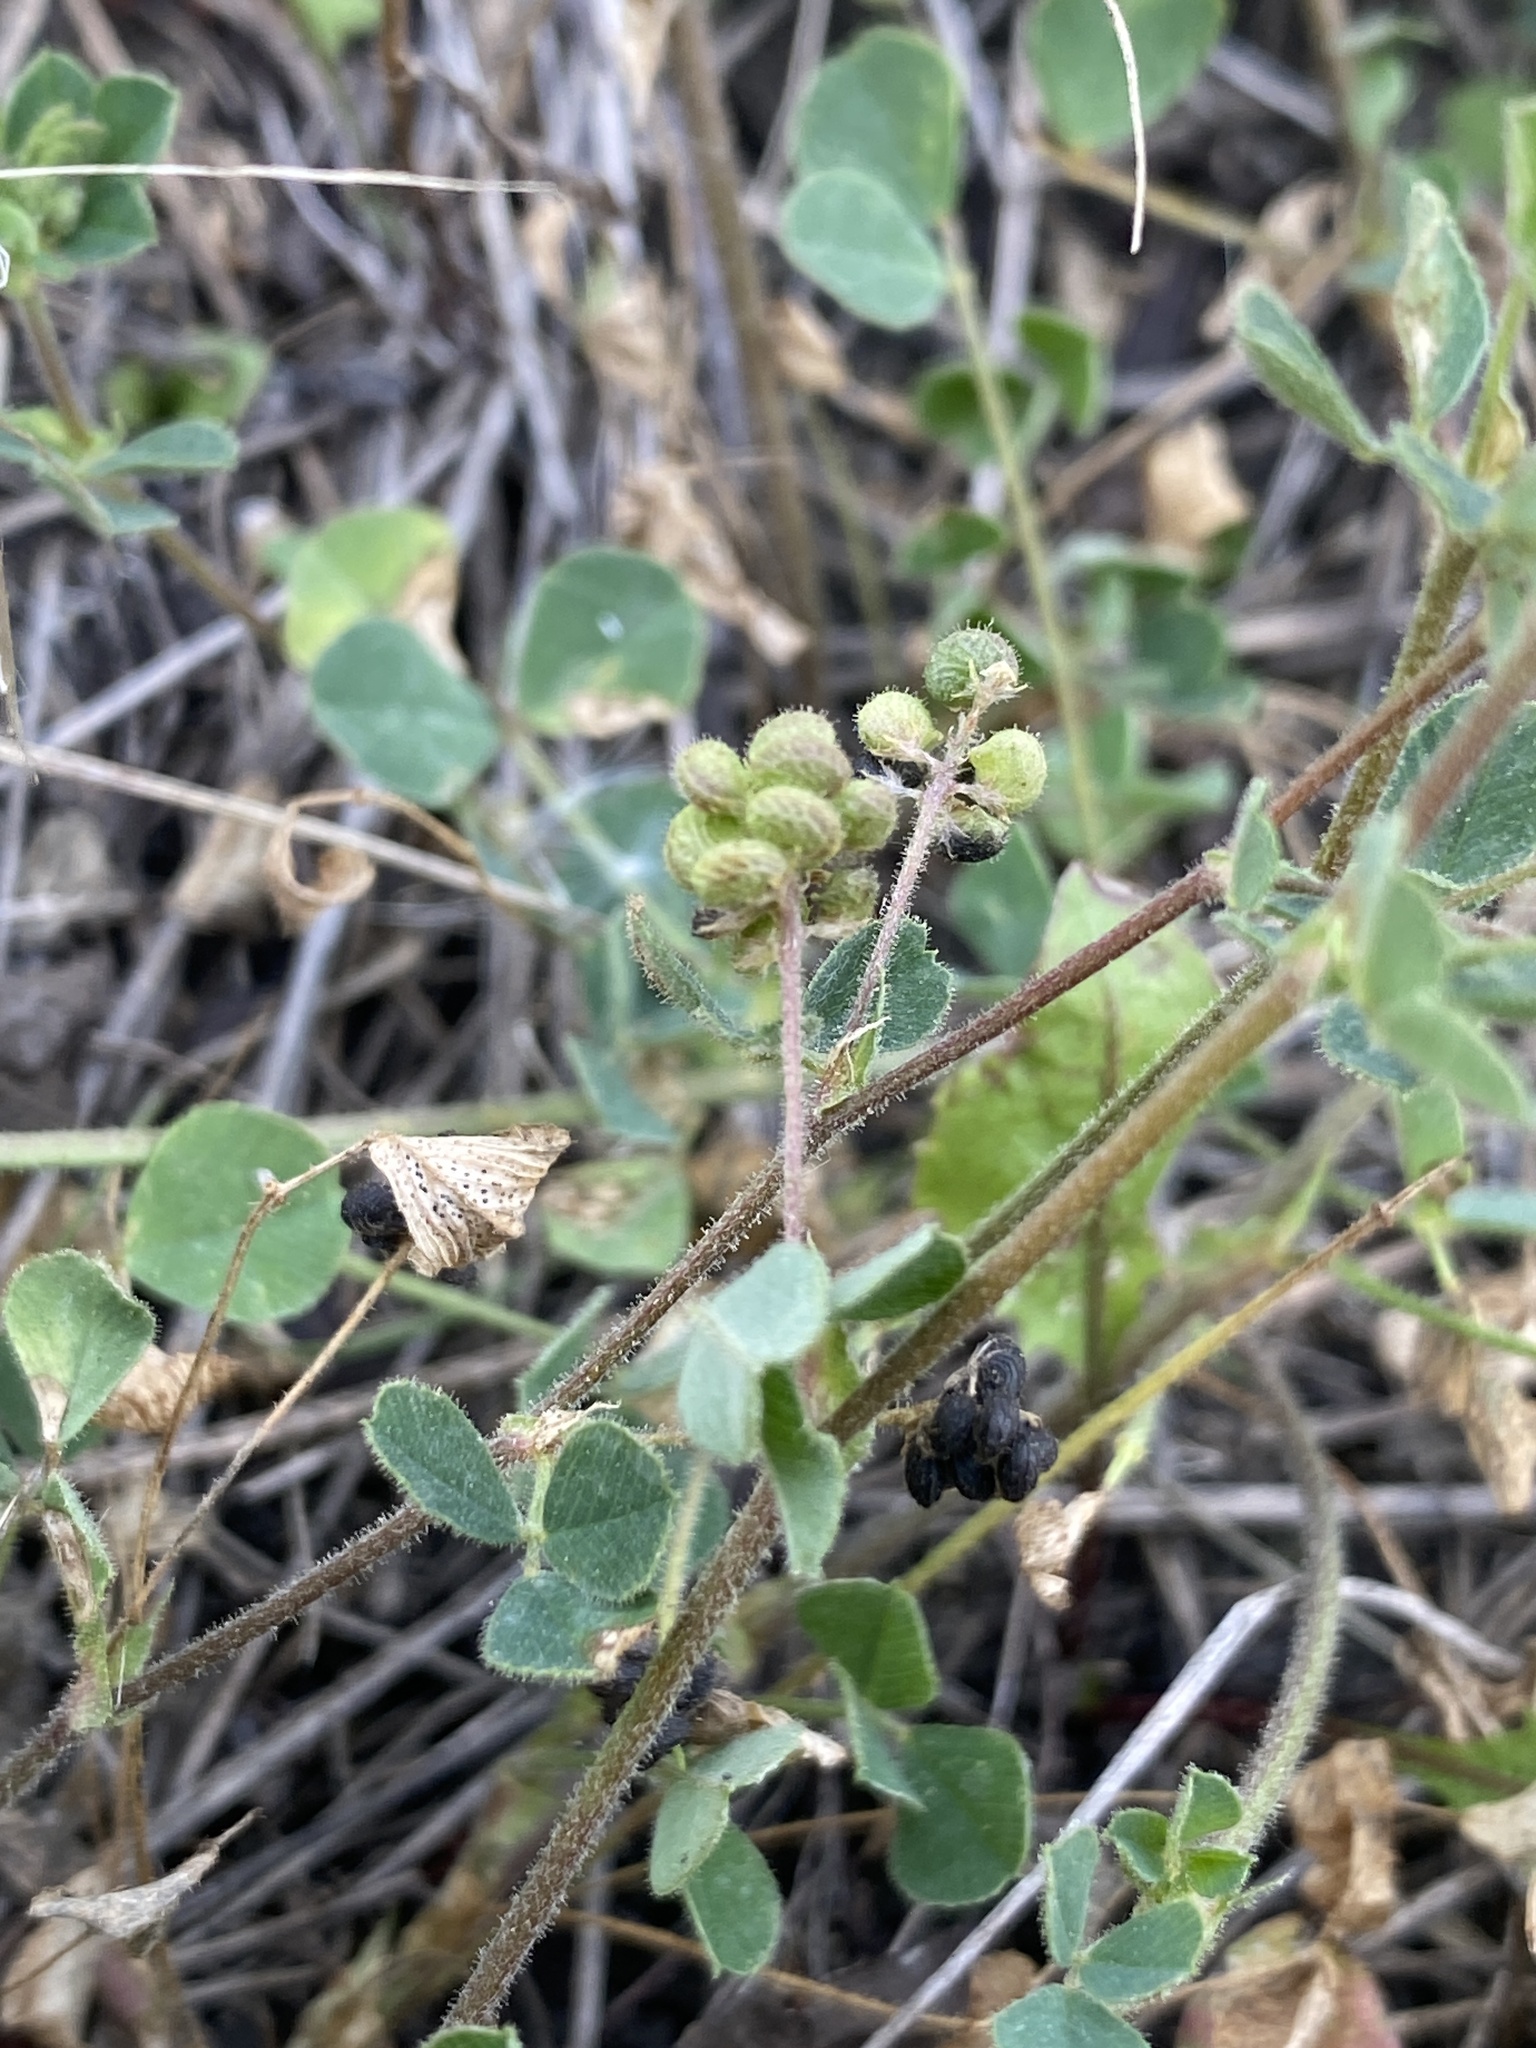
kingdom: Plantae
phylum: Tracheophyta
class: Magnoliopsida
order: Fabales
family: Fabaceae
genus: Medicago
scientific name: Medicago lupulina
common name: Black medick
